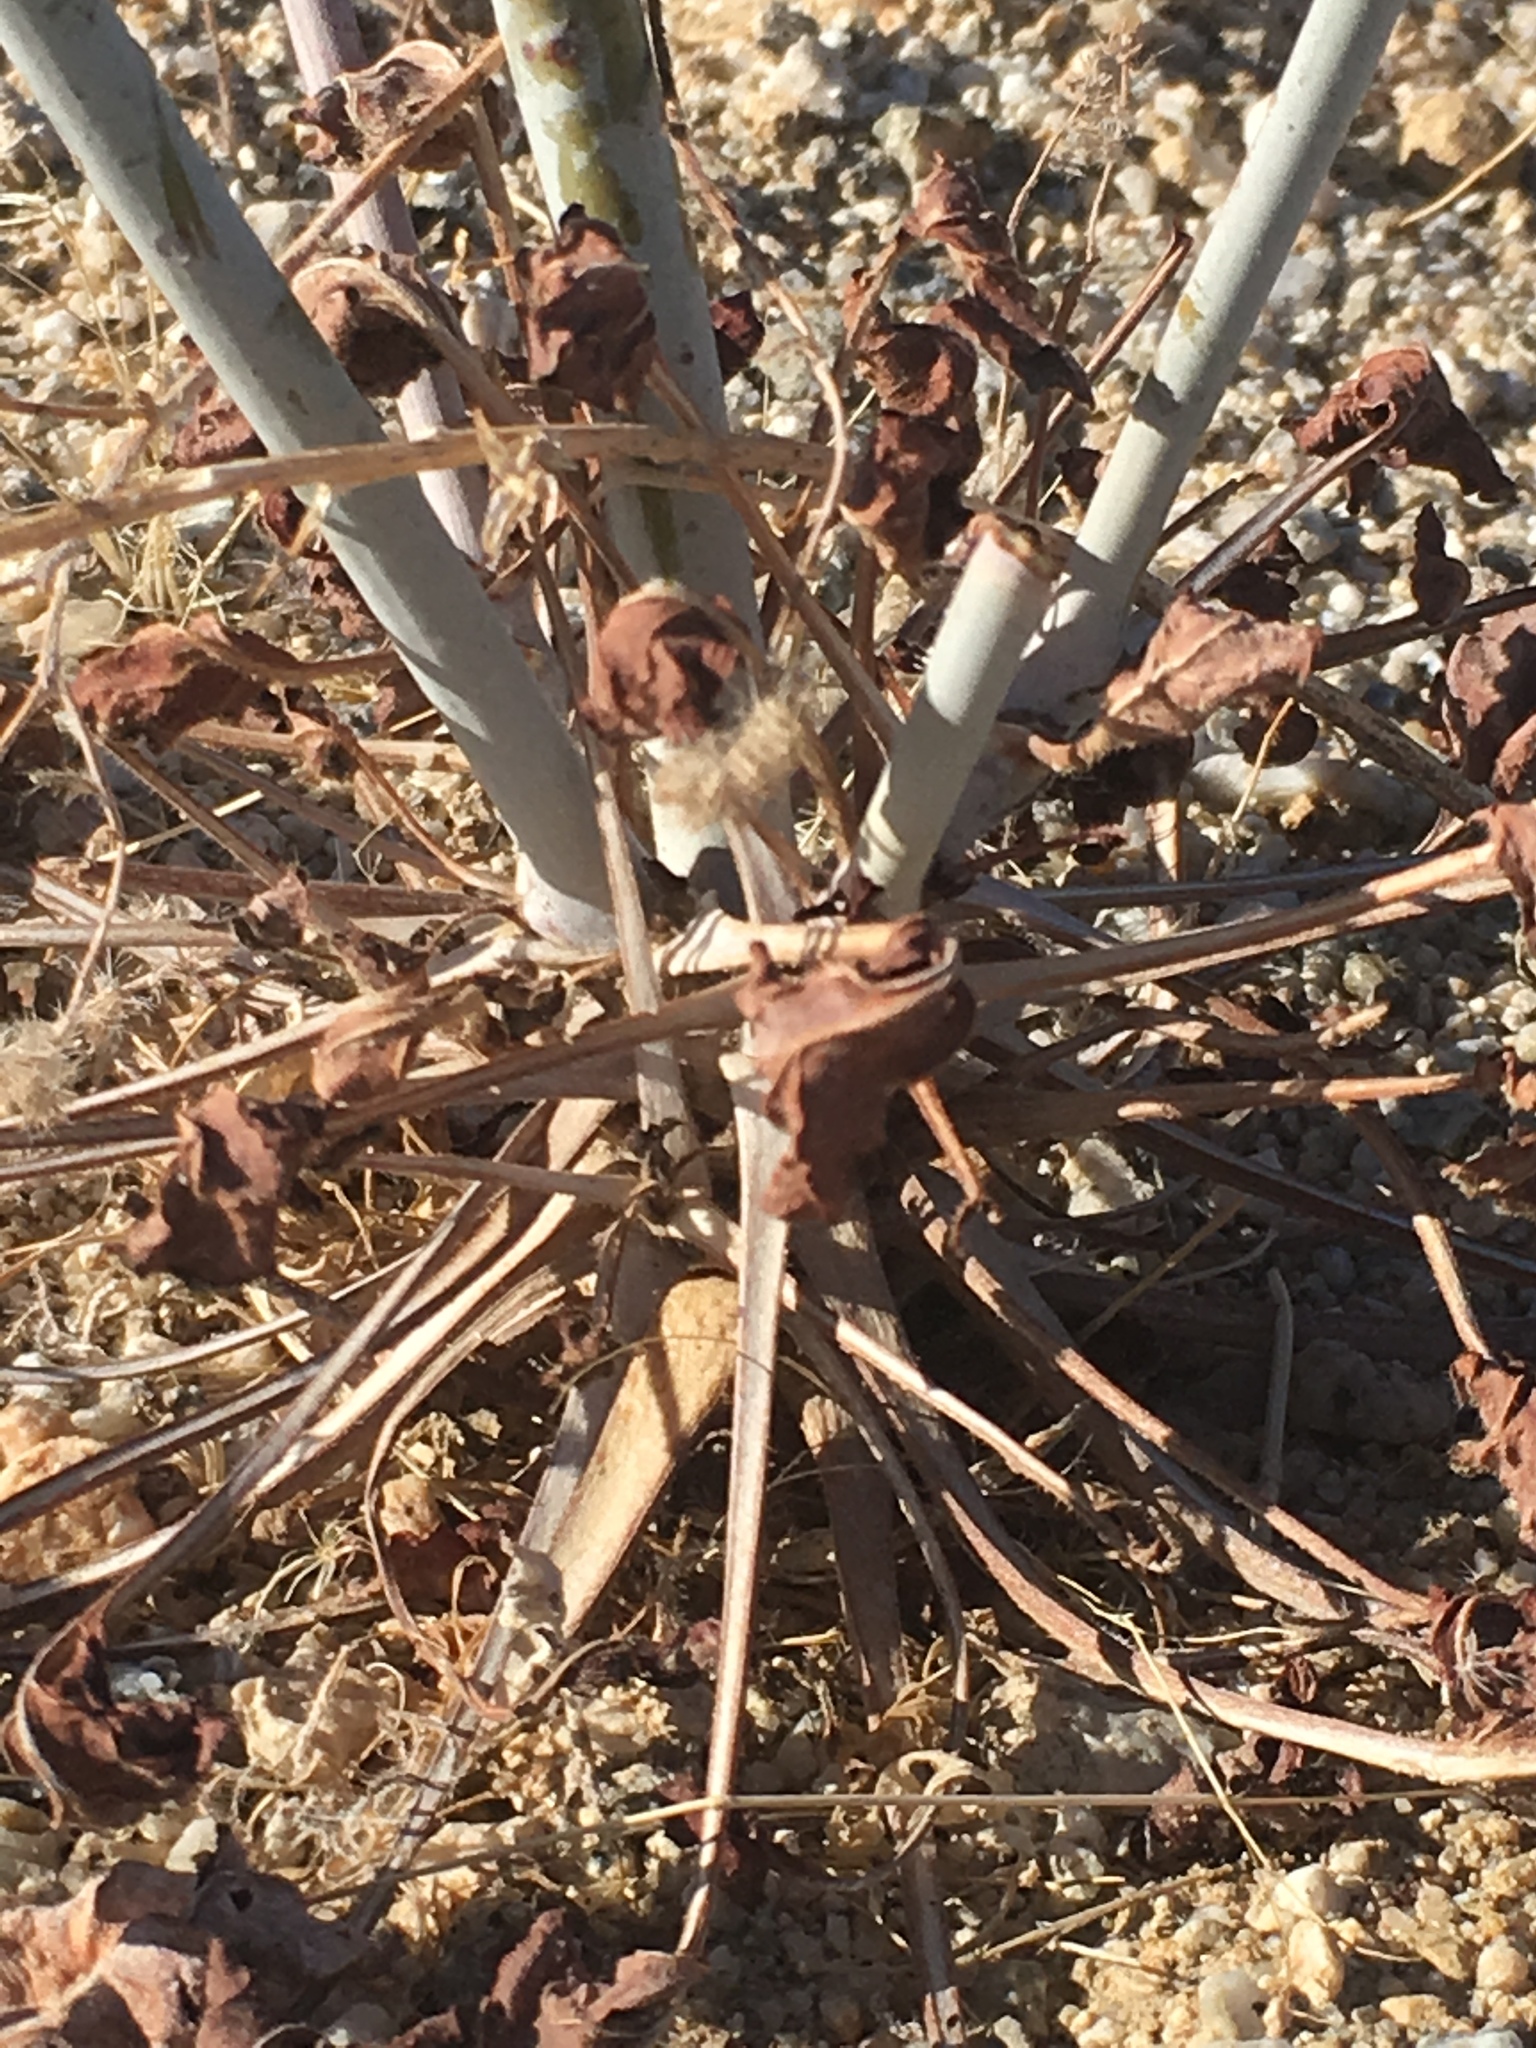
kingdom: Plantae
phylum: Tracheophyta
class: Magnoliopsida
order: Caryophyllales
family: Polygonaceae
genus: Eriogonum
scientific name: Eriogonum inflatum
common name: Desert trumpet
